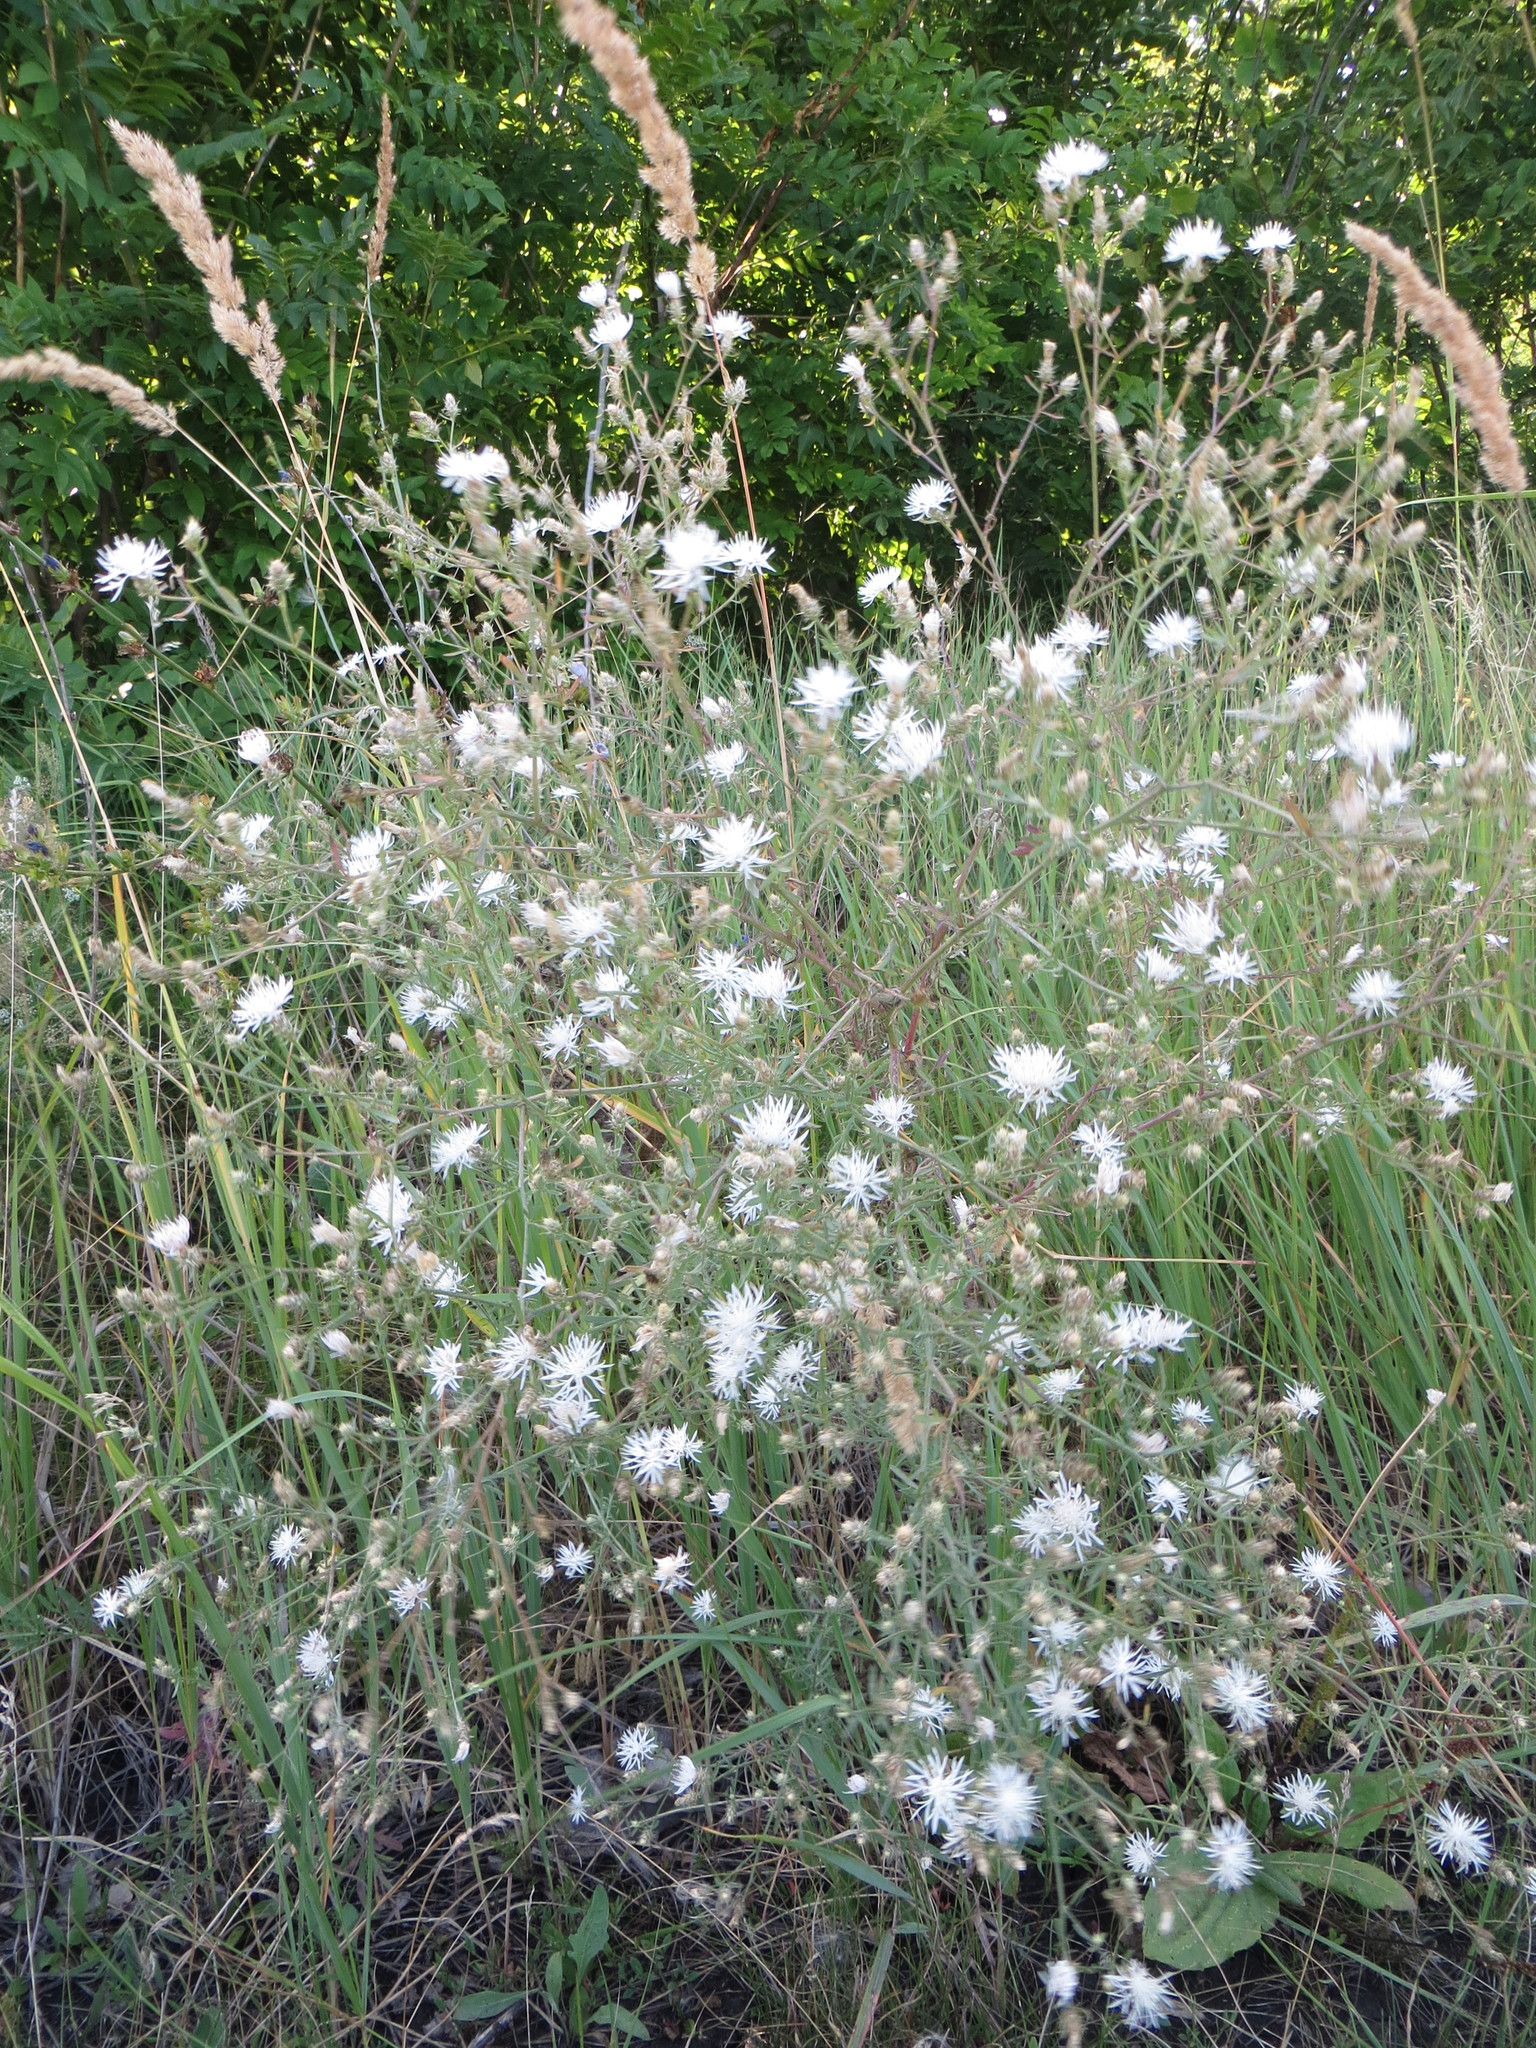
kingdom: Plantae
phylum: Tracheophyta
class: Magnoliopsida
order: Asterales
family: Asteraceae
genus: Centaurea
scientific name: Centaurea diffusa
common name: Diffuse knapweed
